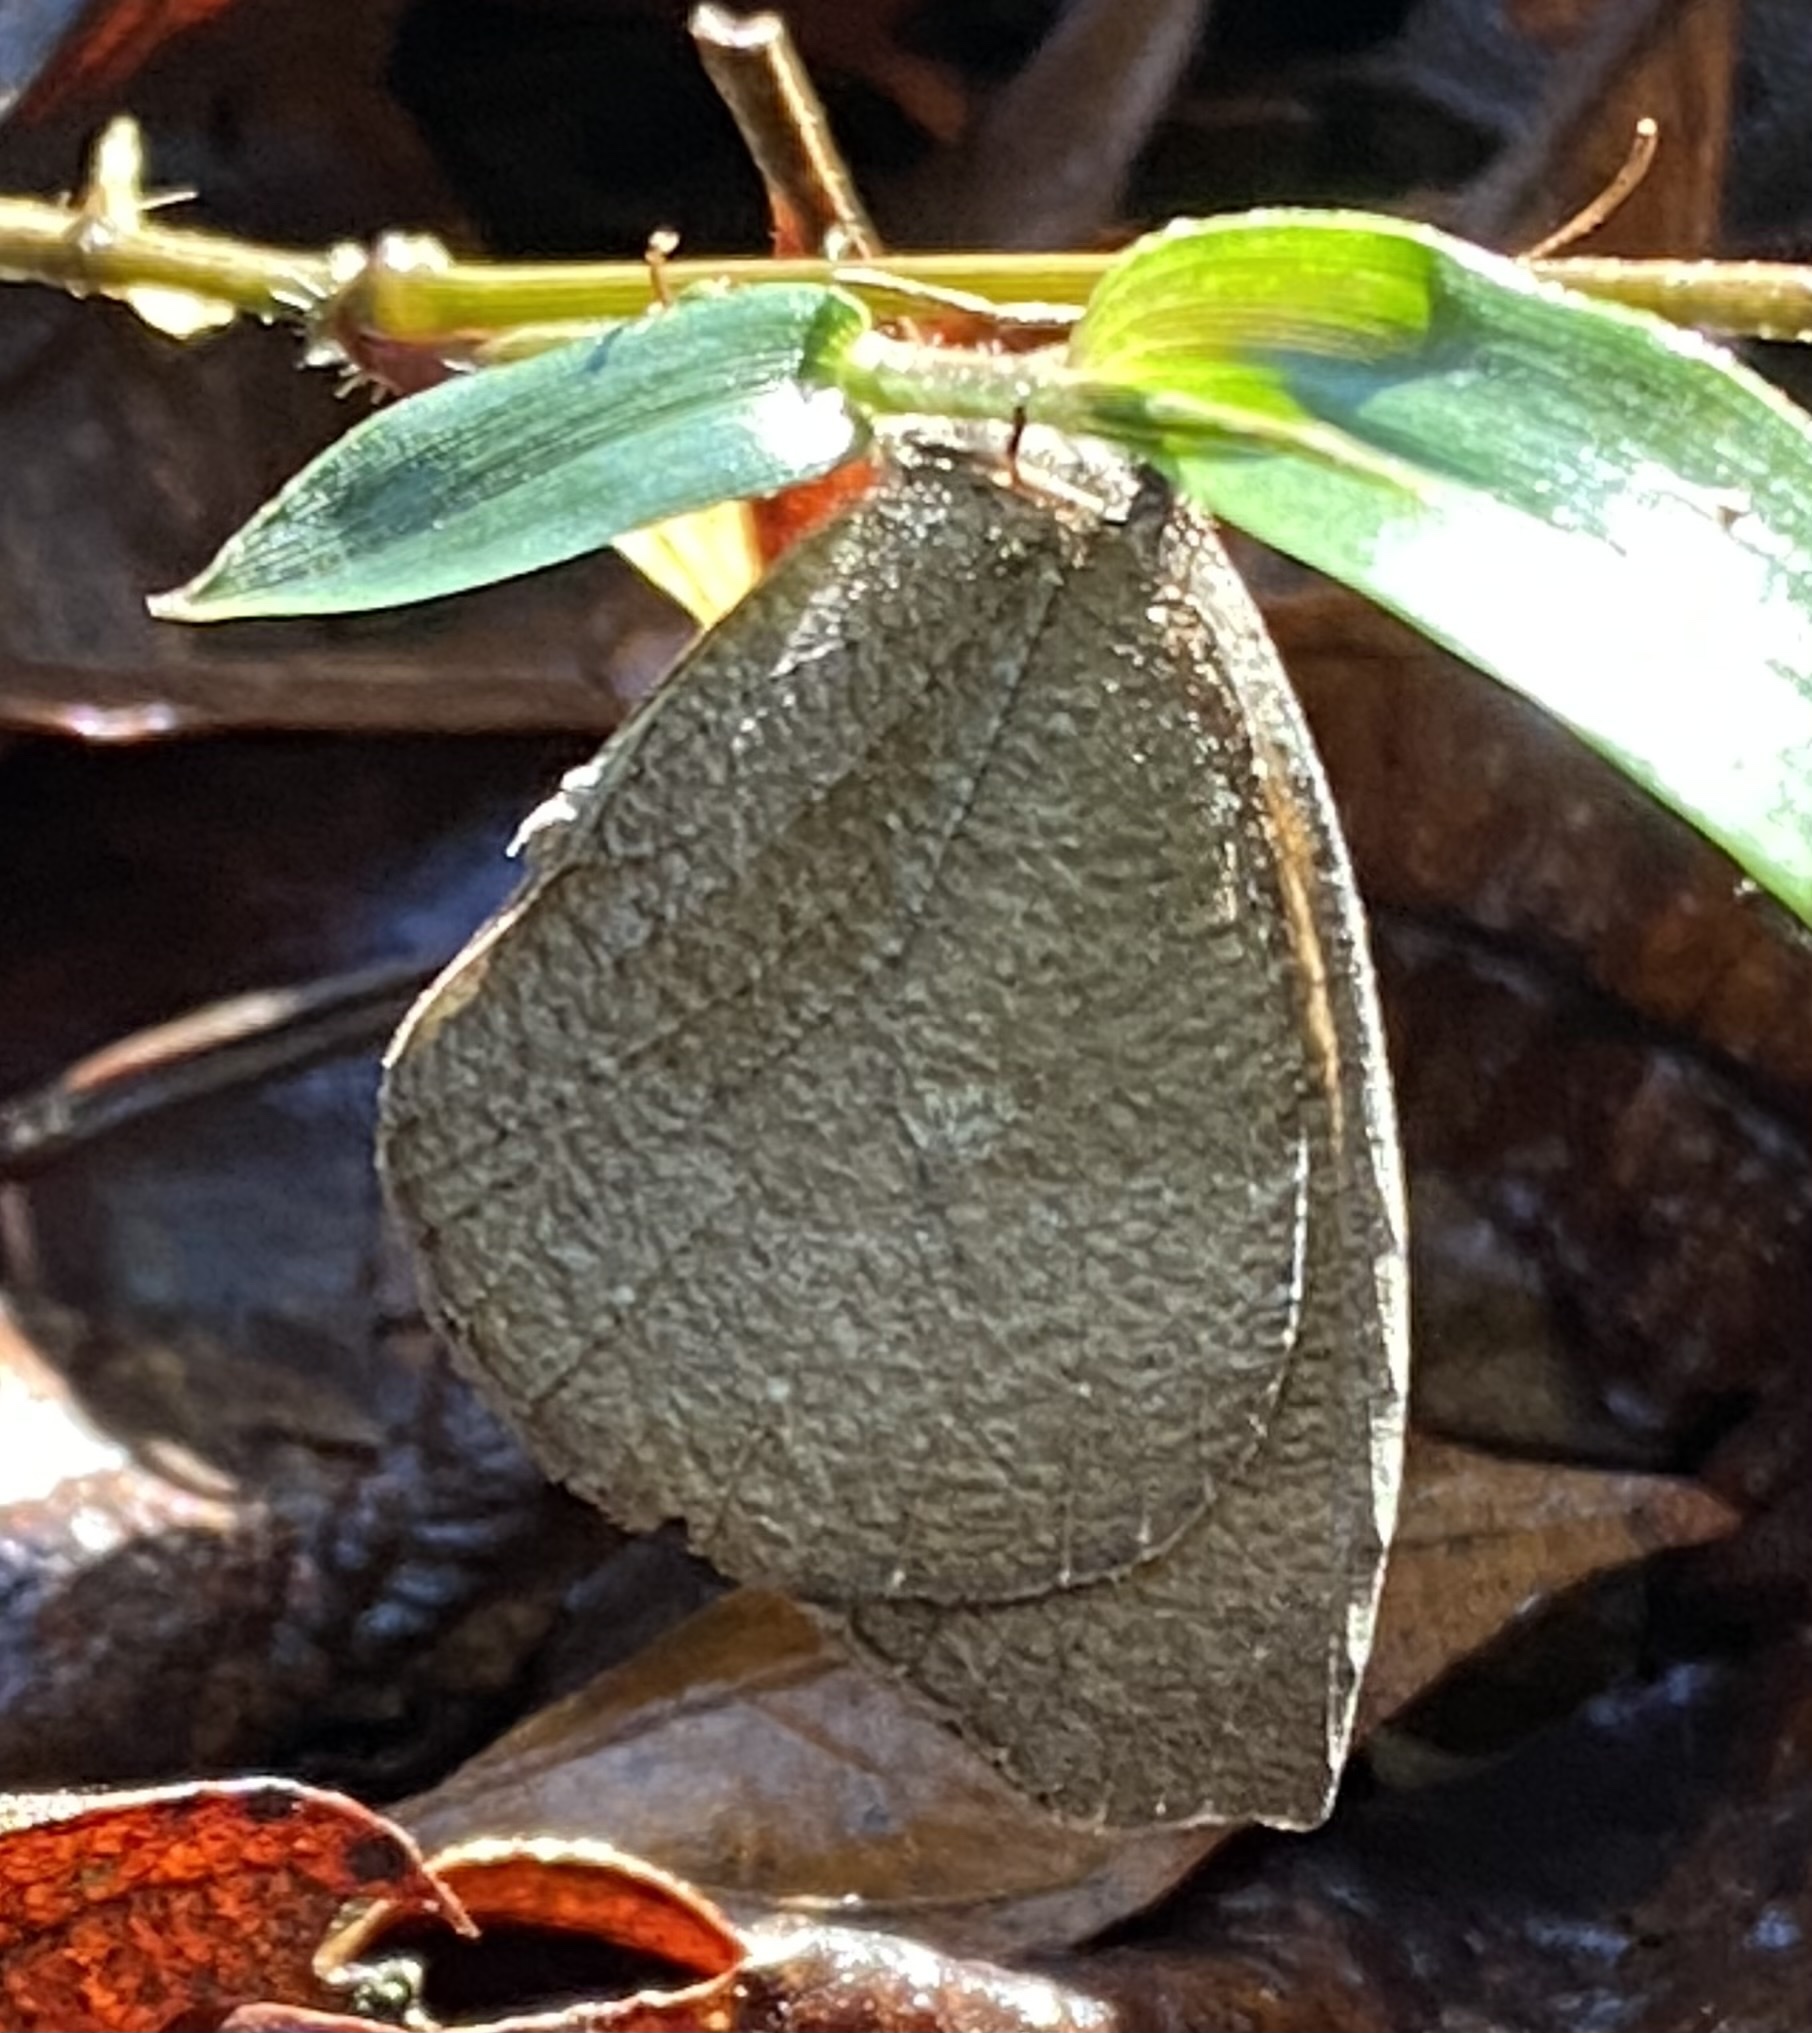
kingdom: Animalia
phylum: Arthropoda
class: Insecta
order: Lepidoptera
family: Nymphalidae
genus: Godartiana
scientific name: Godartiana muscosa
